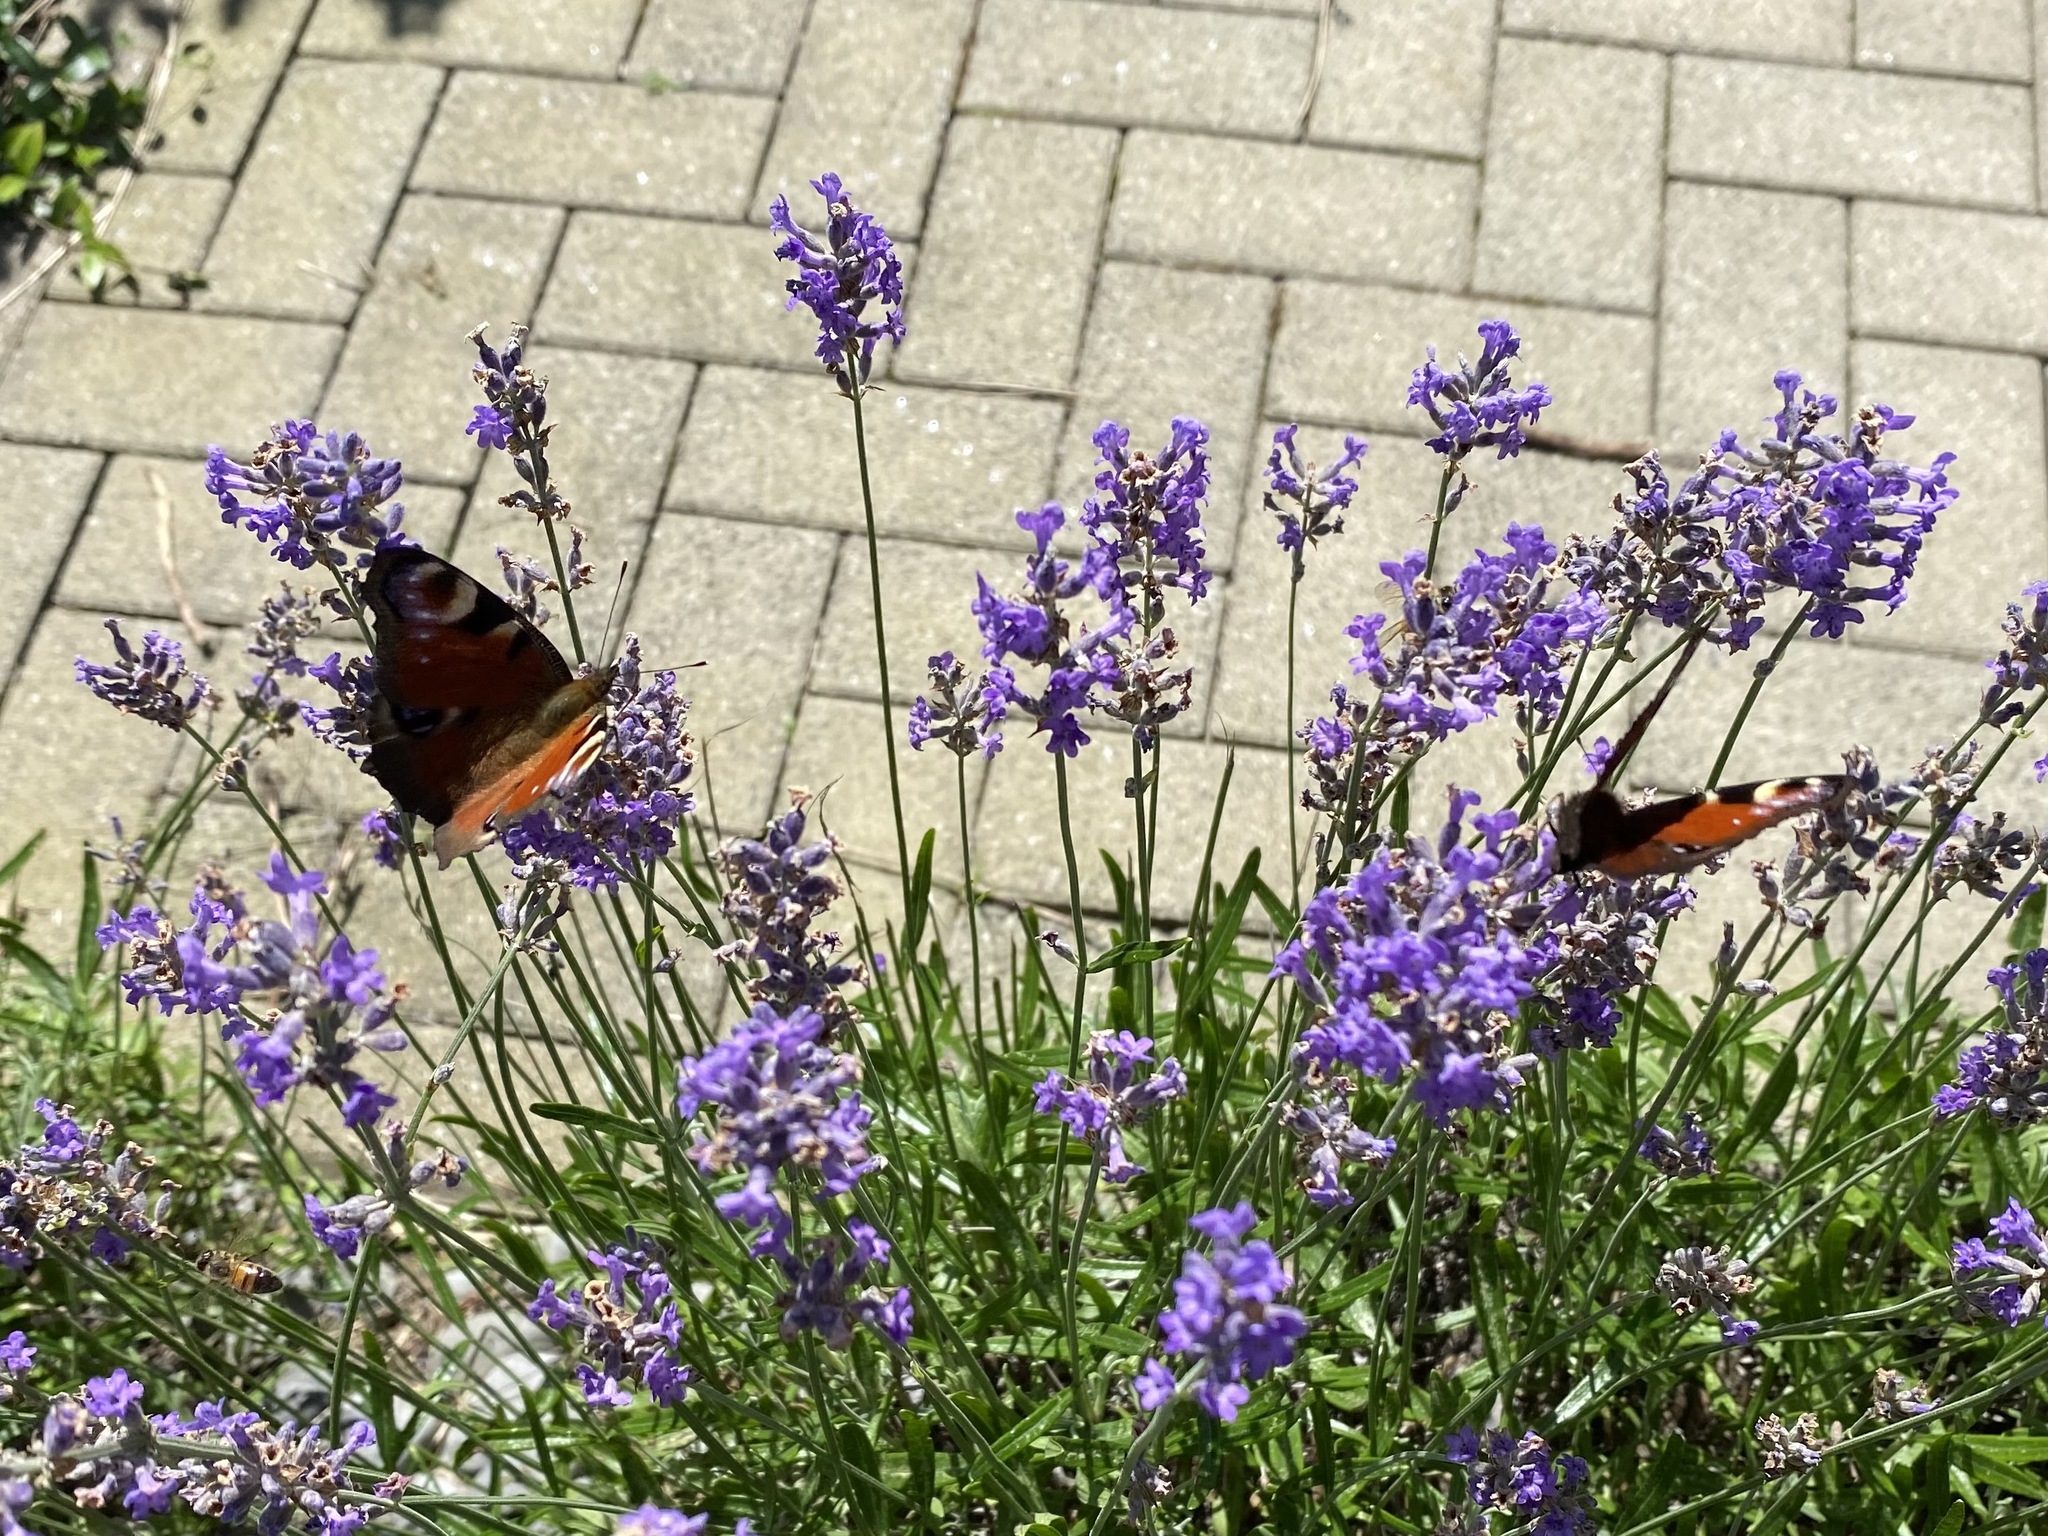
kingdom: Animalia
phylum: Arthropoda
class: Insecta
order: Lepidoptera
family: Nymphalidae
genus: Aglais
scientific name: Aglais io
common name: Peacock
